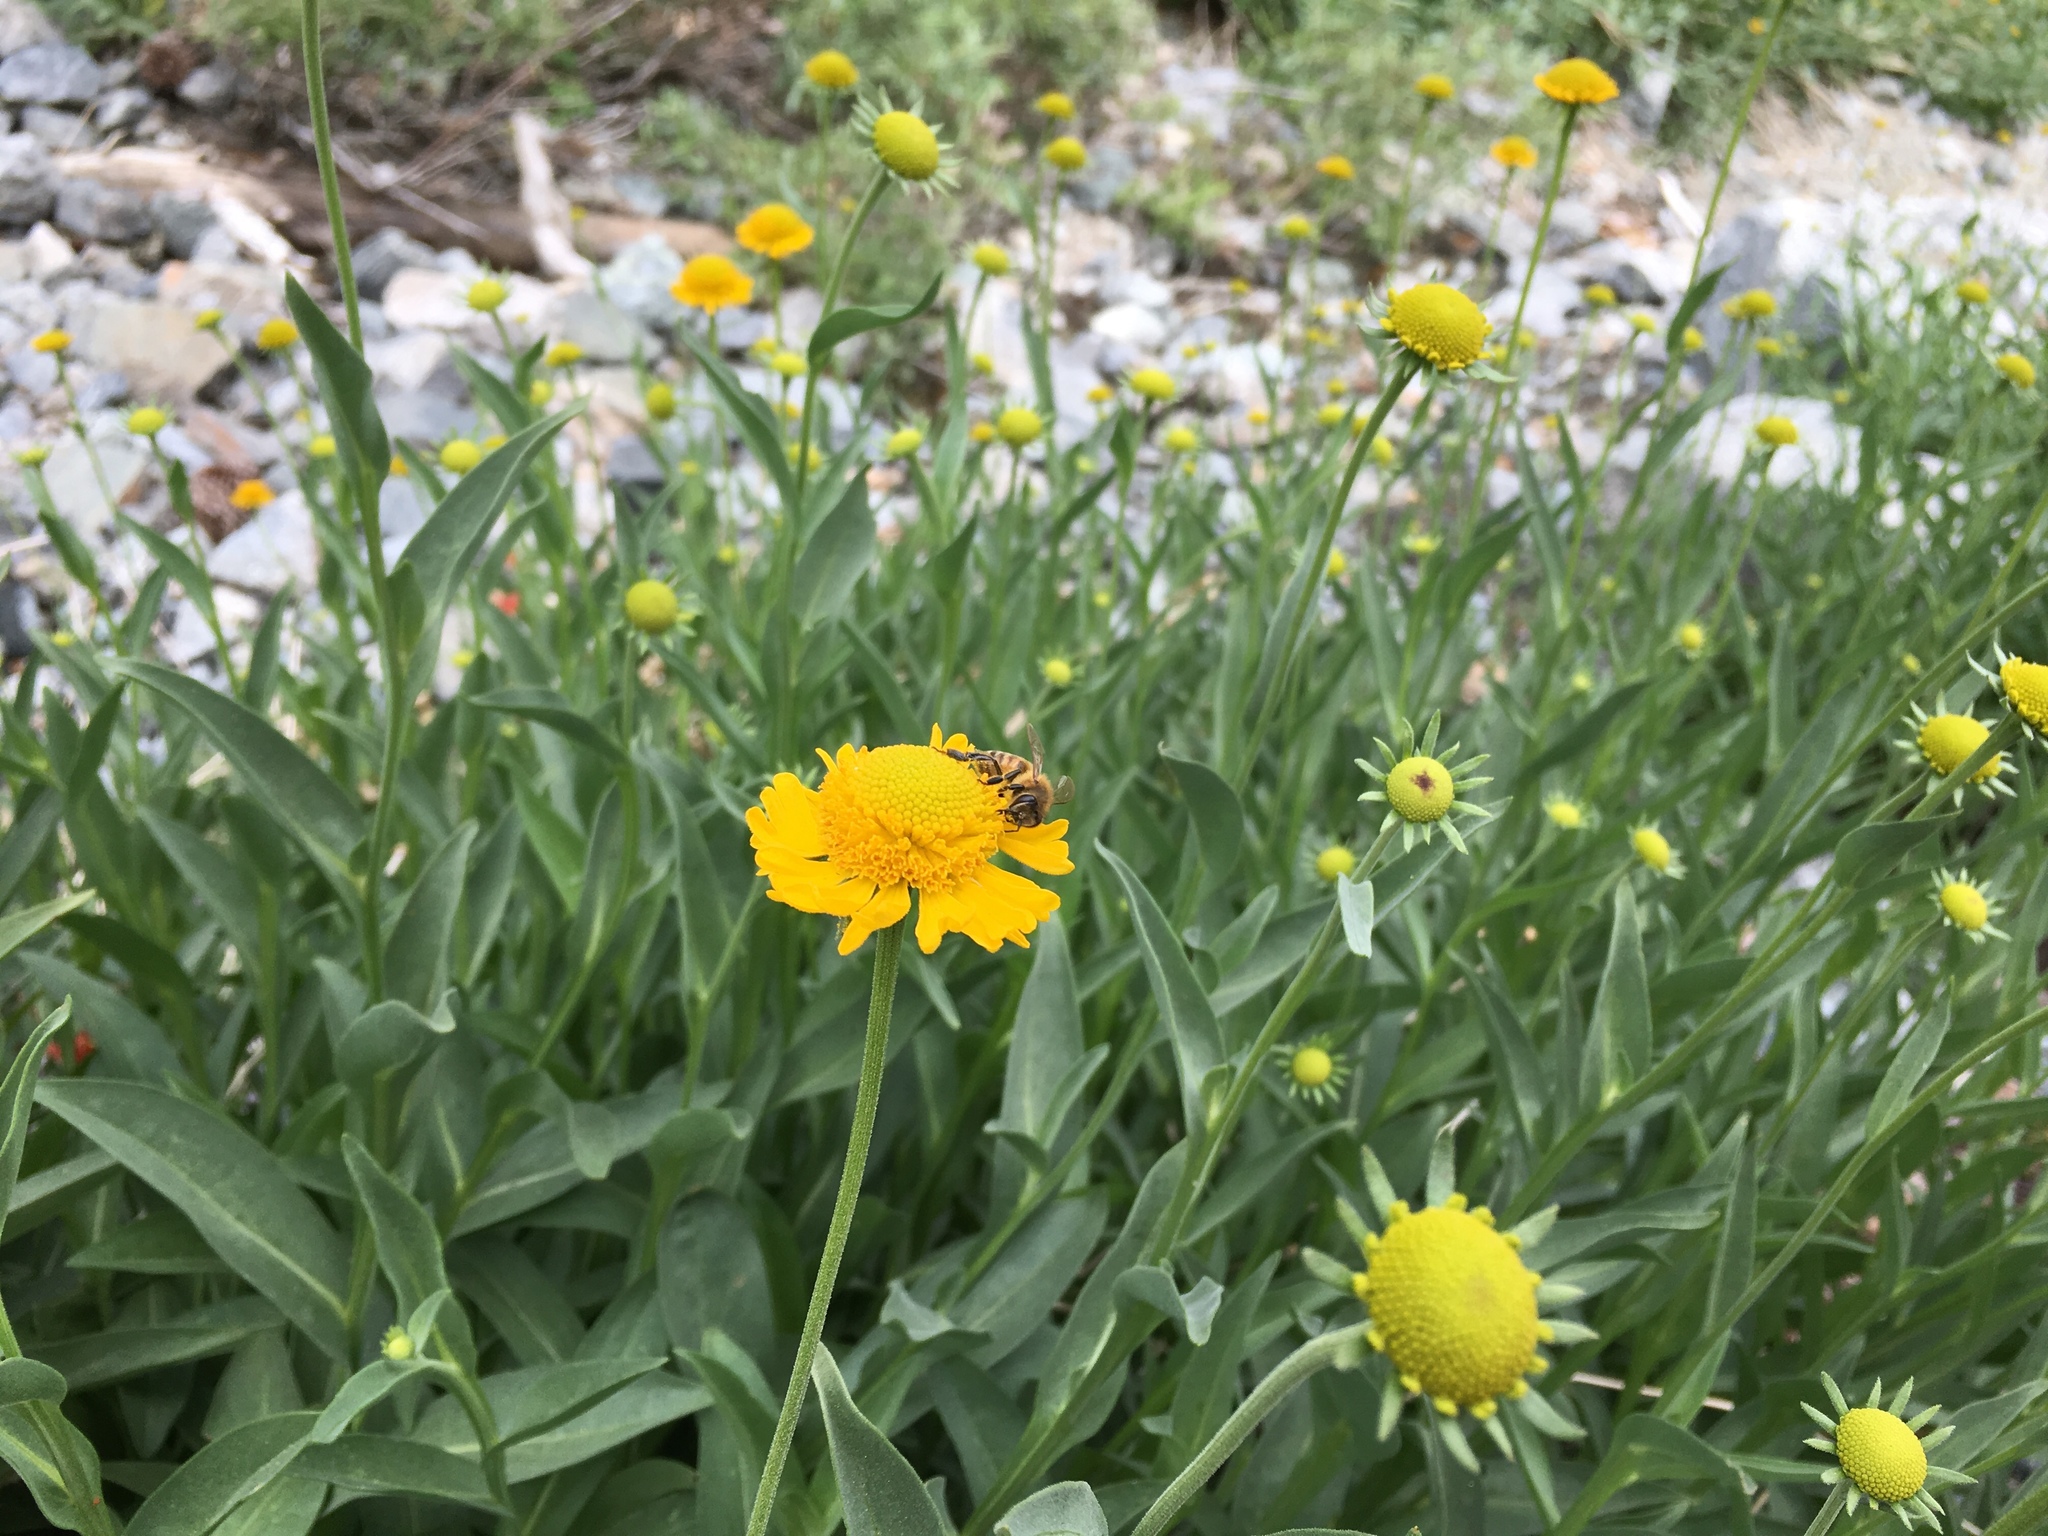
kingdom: Plantae
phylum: Tracheophyta
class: Magnoliopsida
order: Asterales
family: Asteraceae
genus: Helenium
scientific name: Helenium bigelovii
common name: Bigelow's sneezeweed
